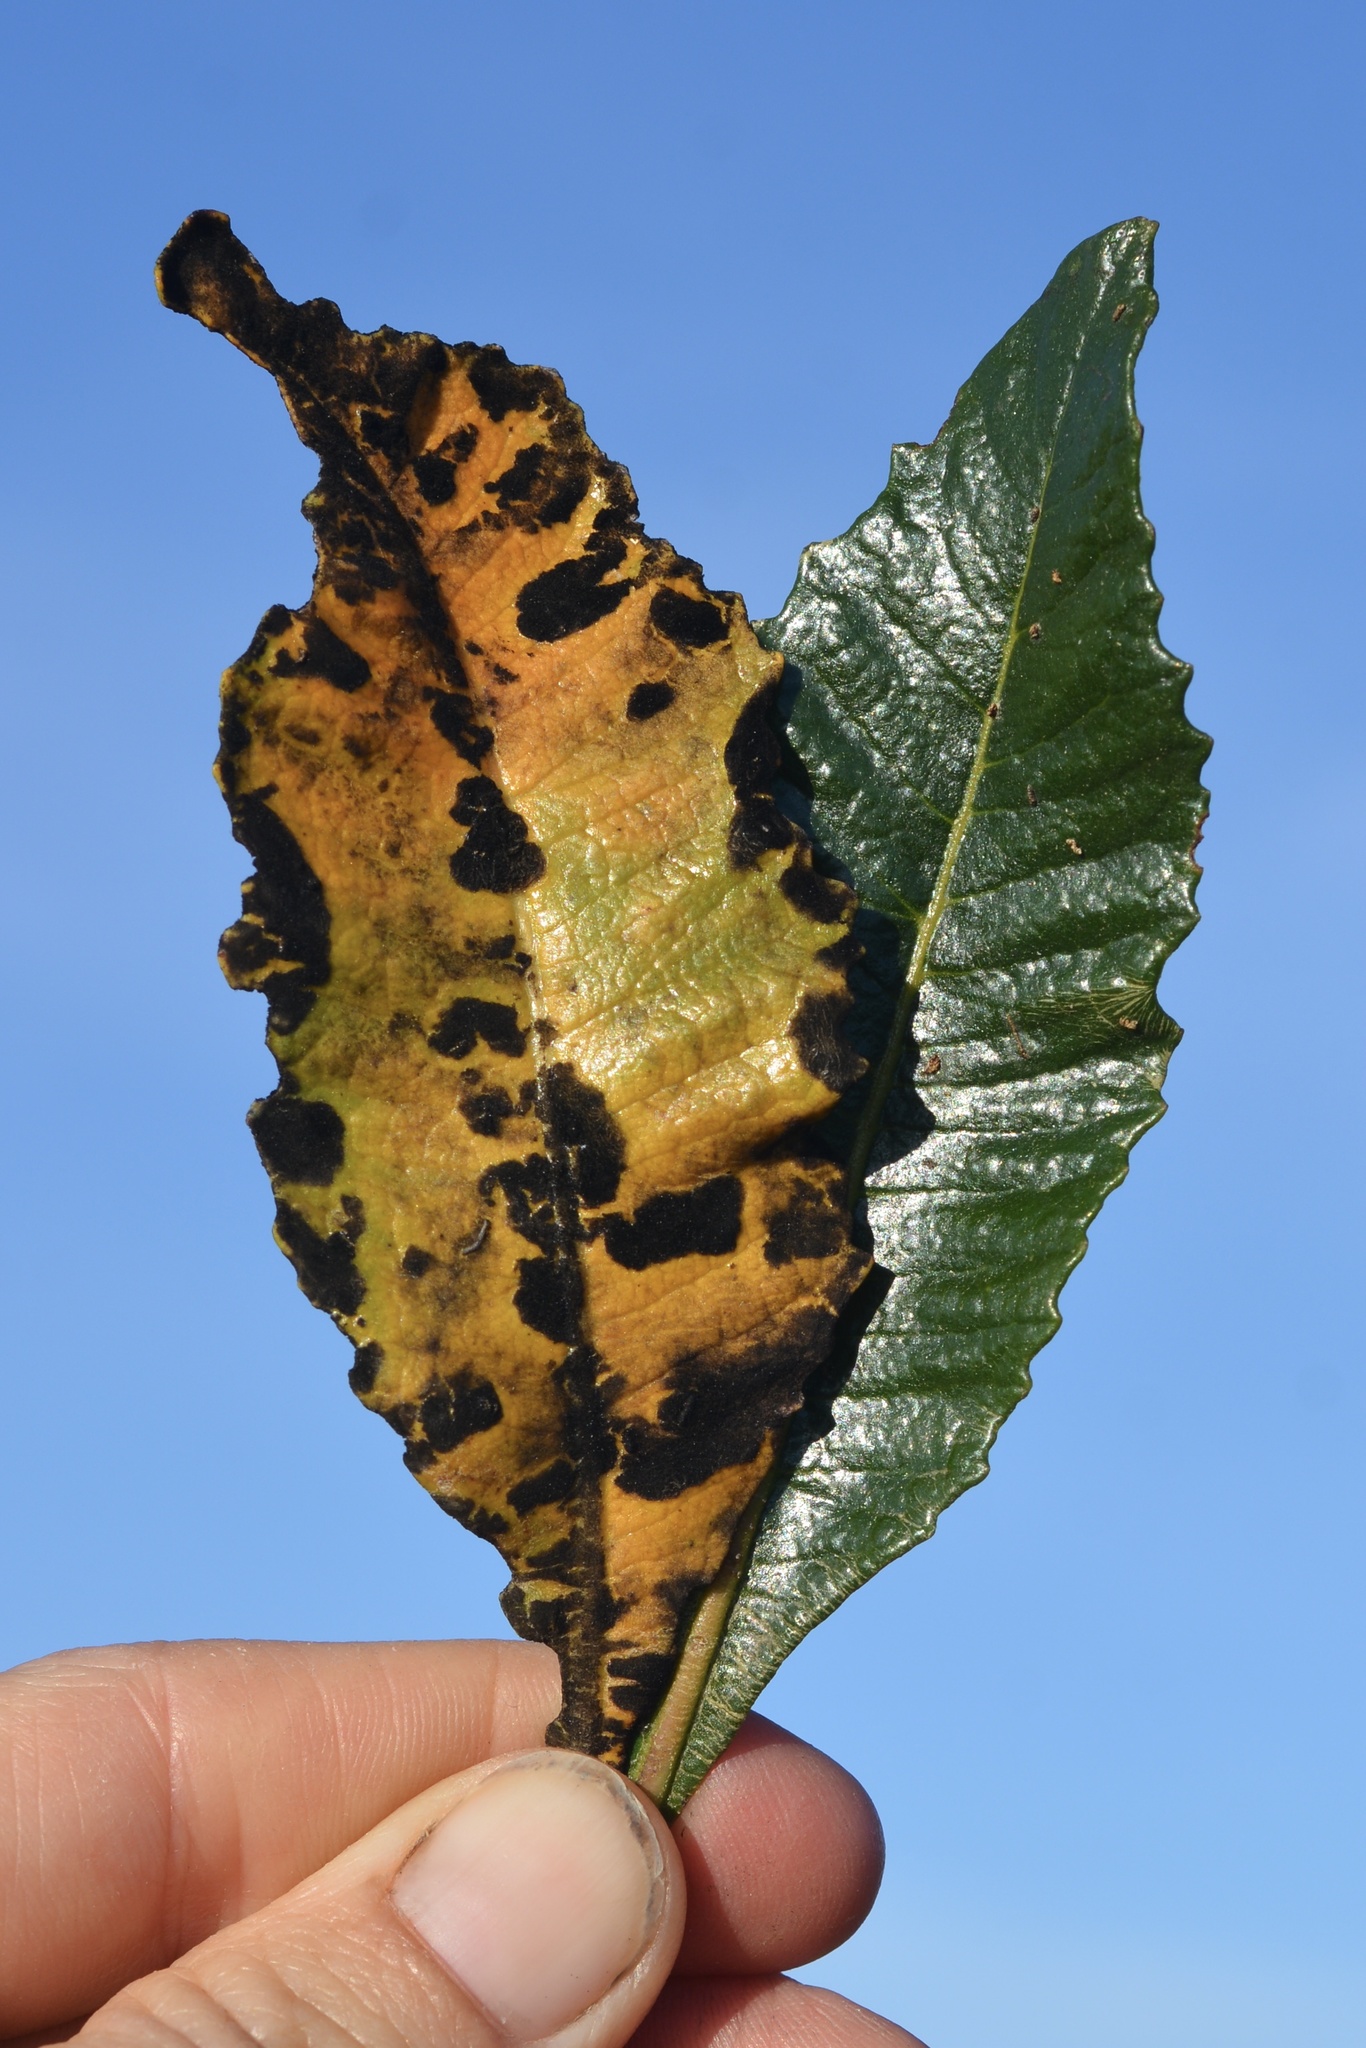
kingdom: Plantae
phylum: Tracheophyta
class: Magnoliopsida
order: Boraginales
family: Namaceae
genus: Eriodictyon
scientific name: Eriodictyon californicum
